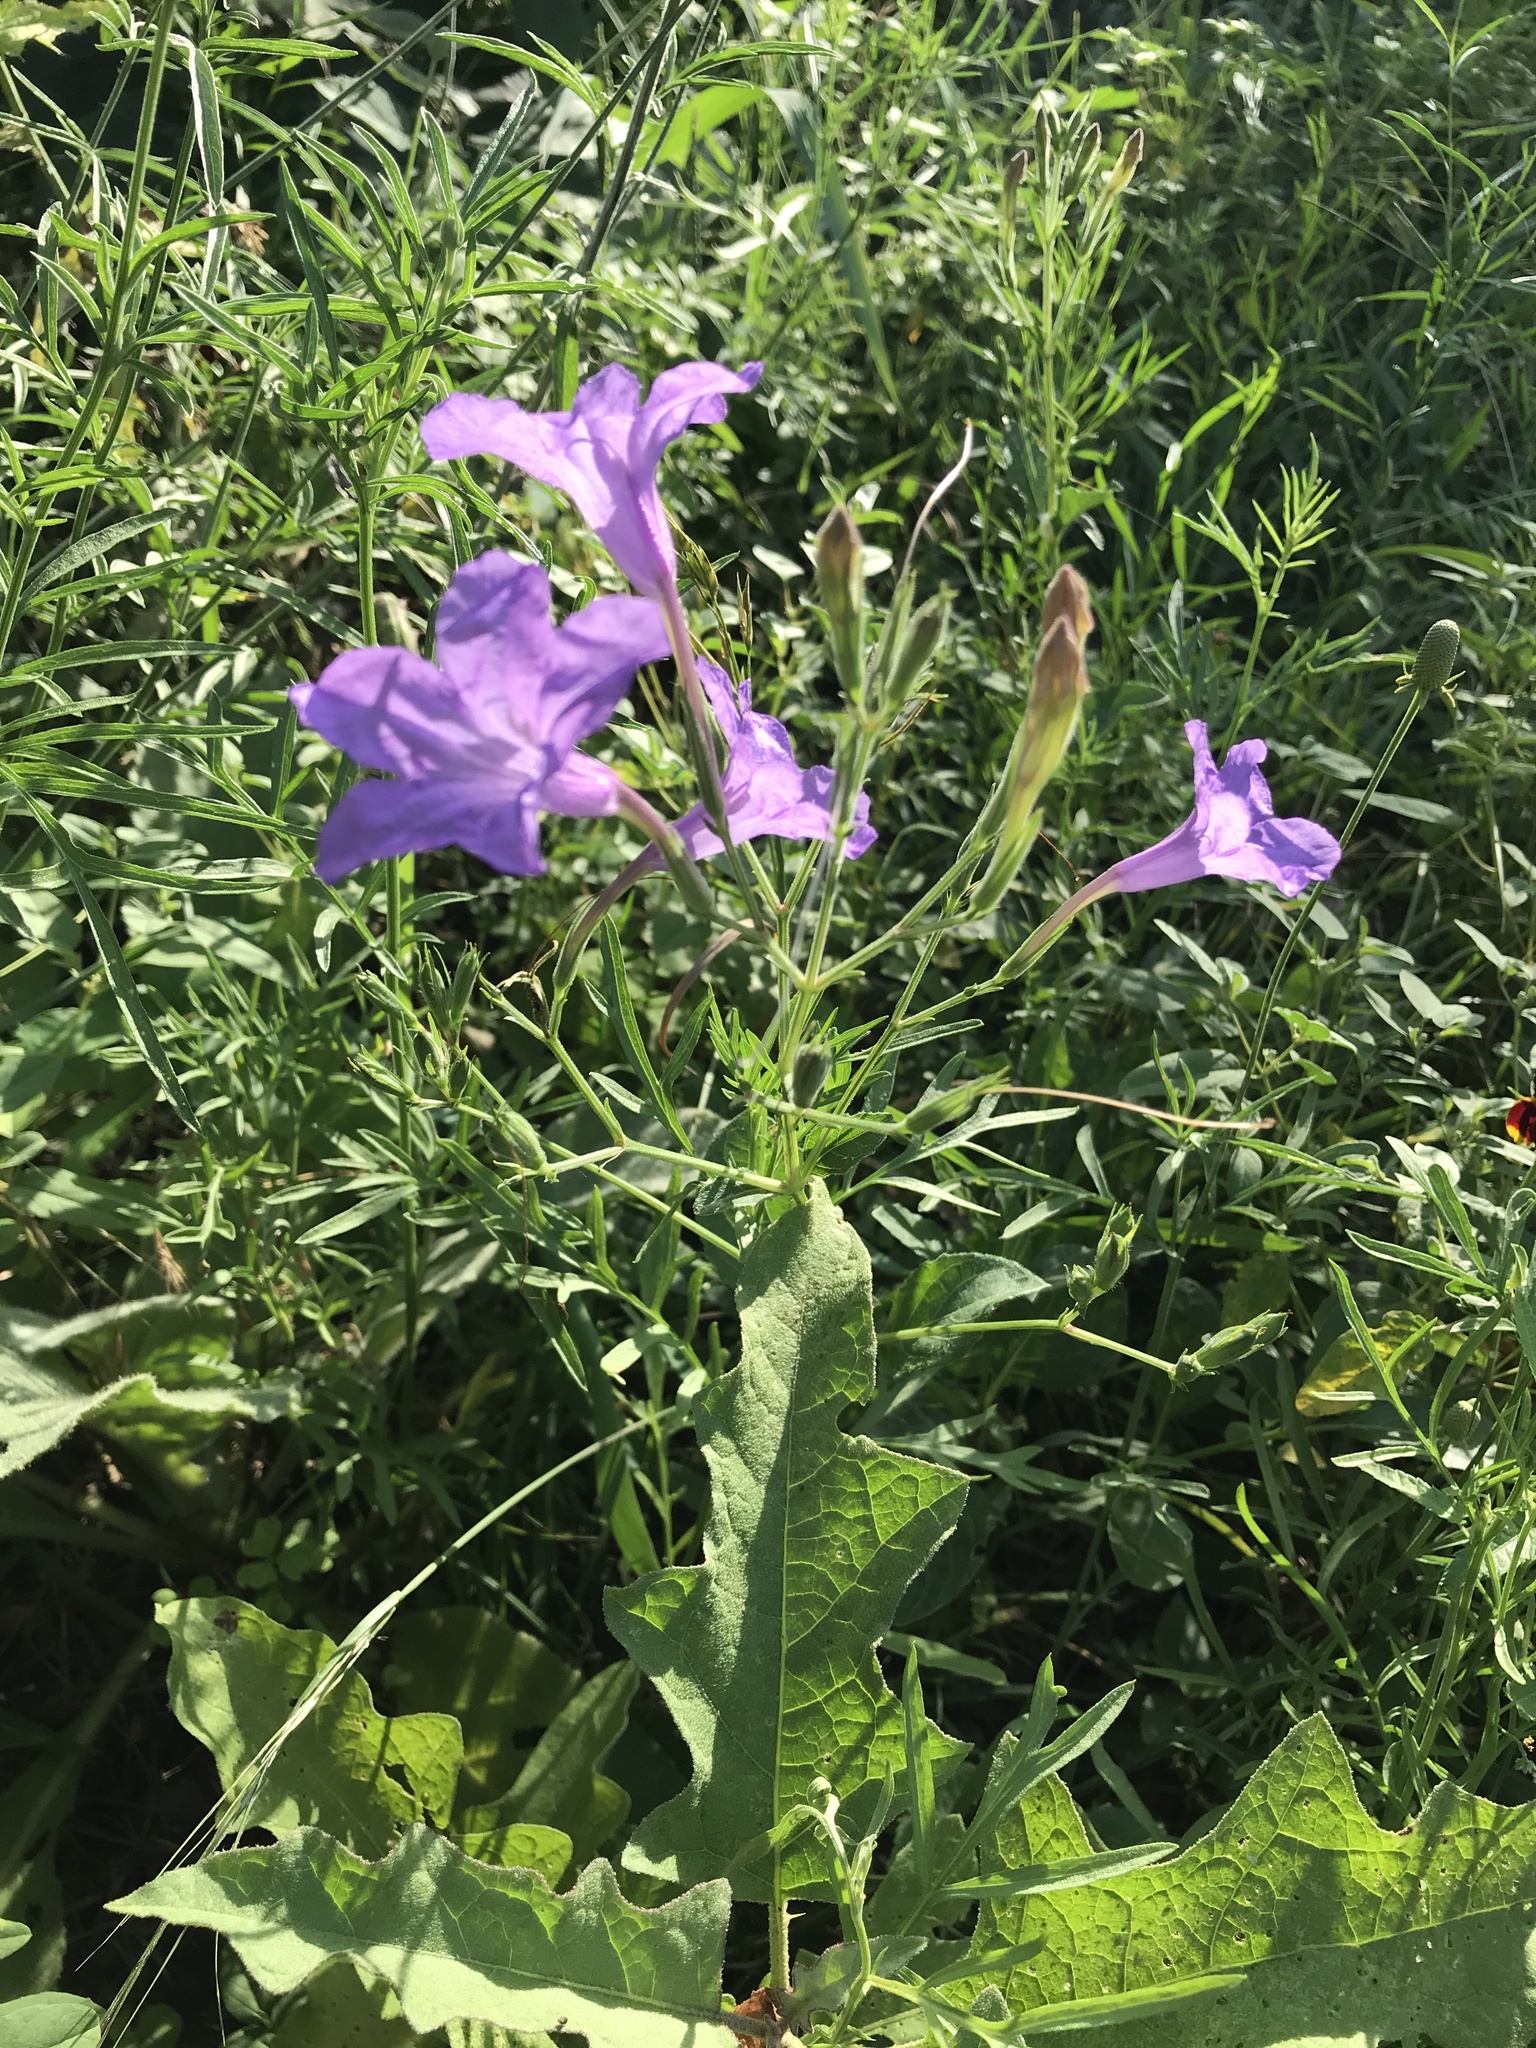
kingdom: Plantae
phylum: Tracheophyta
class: Magnoliopsida
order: Lamiales
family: Acanthaceae
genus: Ruellia
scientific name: Ruellia ciliatiflora
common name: Hairyflower wild petunia
